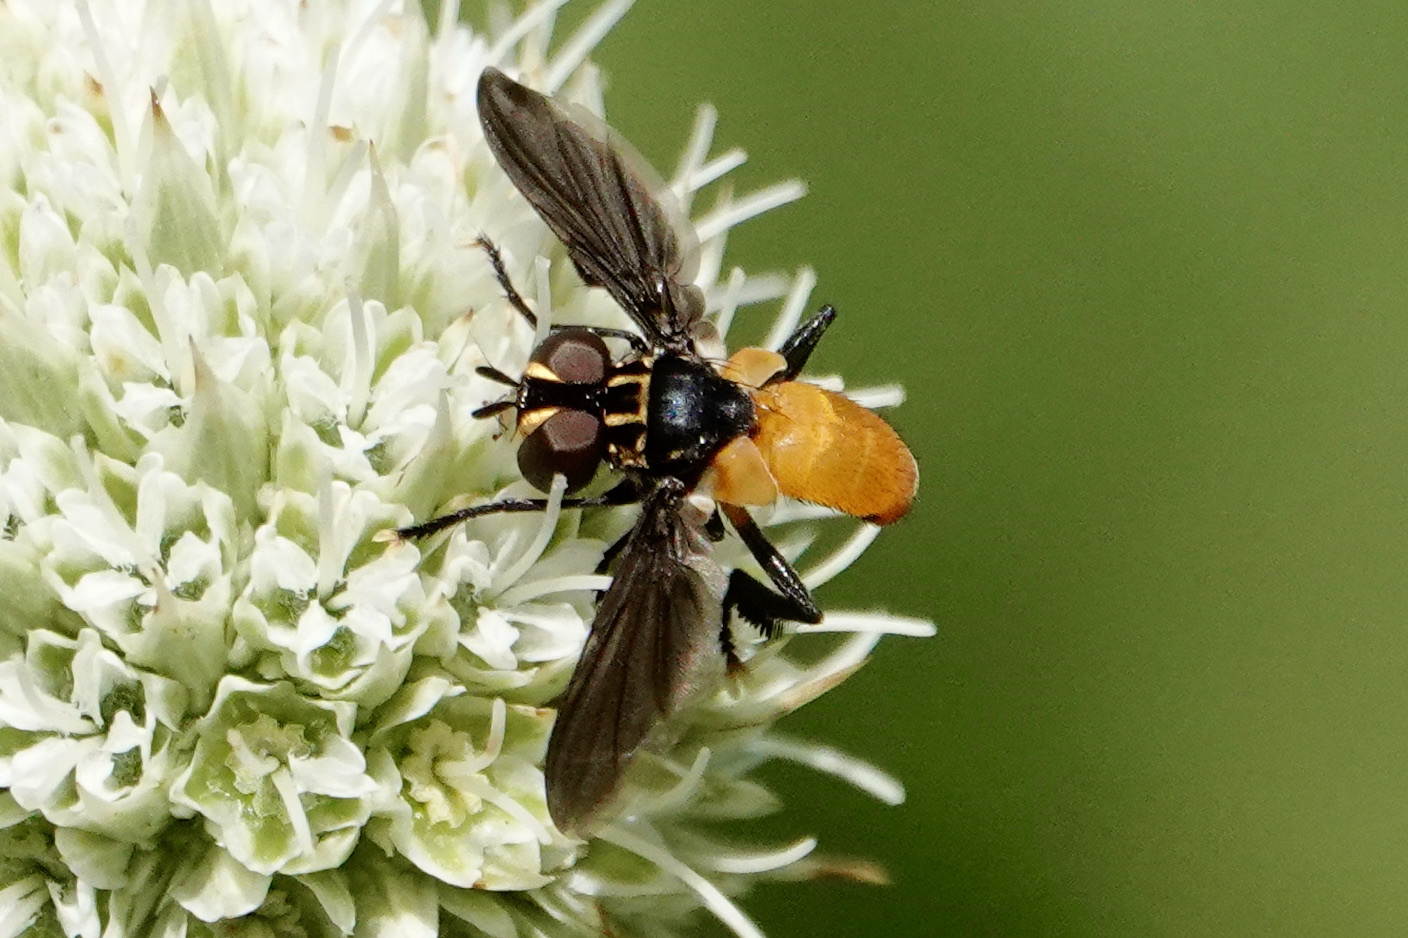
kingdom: Animalia
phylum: Arthropoda
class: Insecta
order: Diptera
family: Tachinidae
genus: Trichopoda
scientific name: Trichopoda pennipes
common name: Tachinid fly
